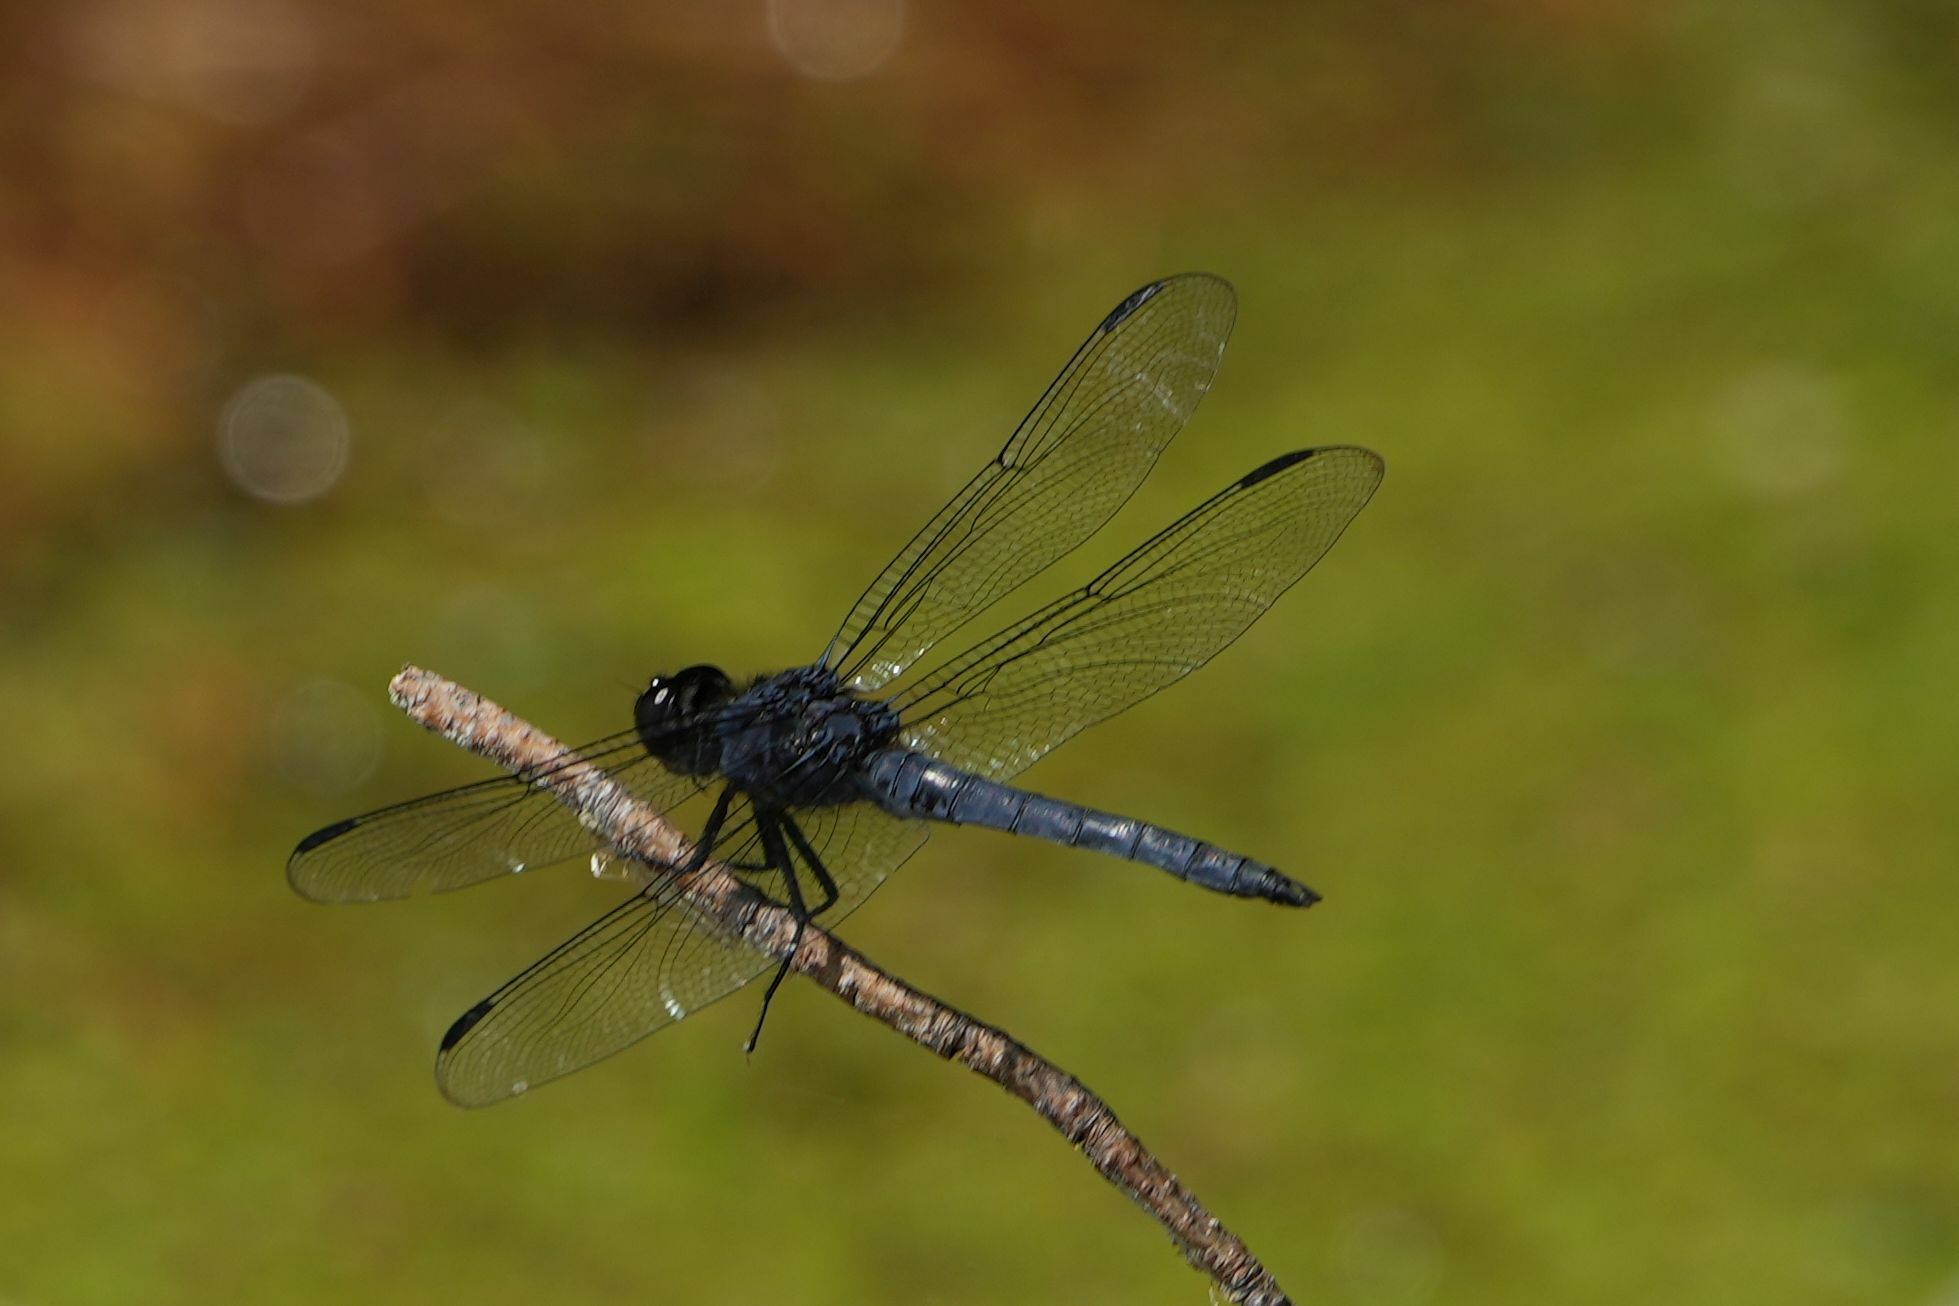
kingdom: Animalia
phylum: Arthropoda
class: Insecta
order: Odonata
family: Libellulidae
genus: Libellula
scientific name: Libellula incesta
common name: Slaty skimmer
